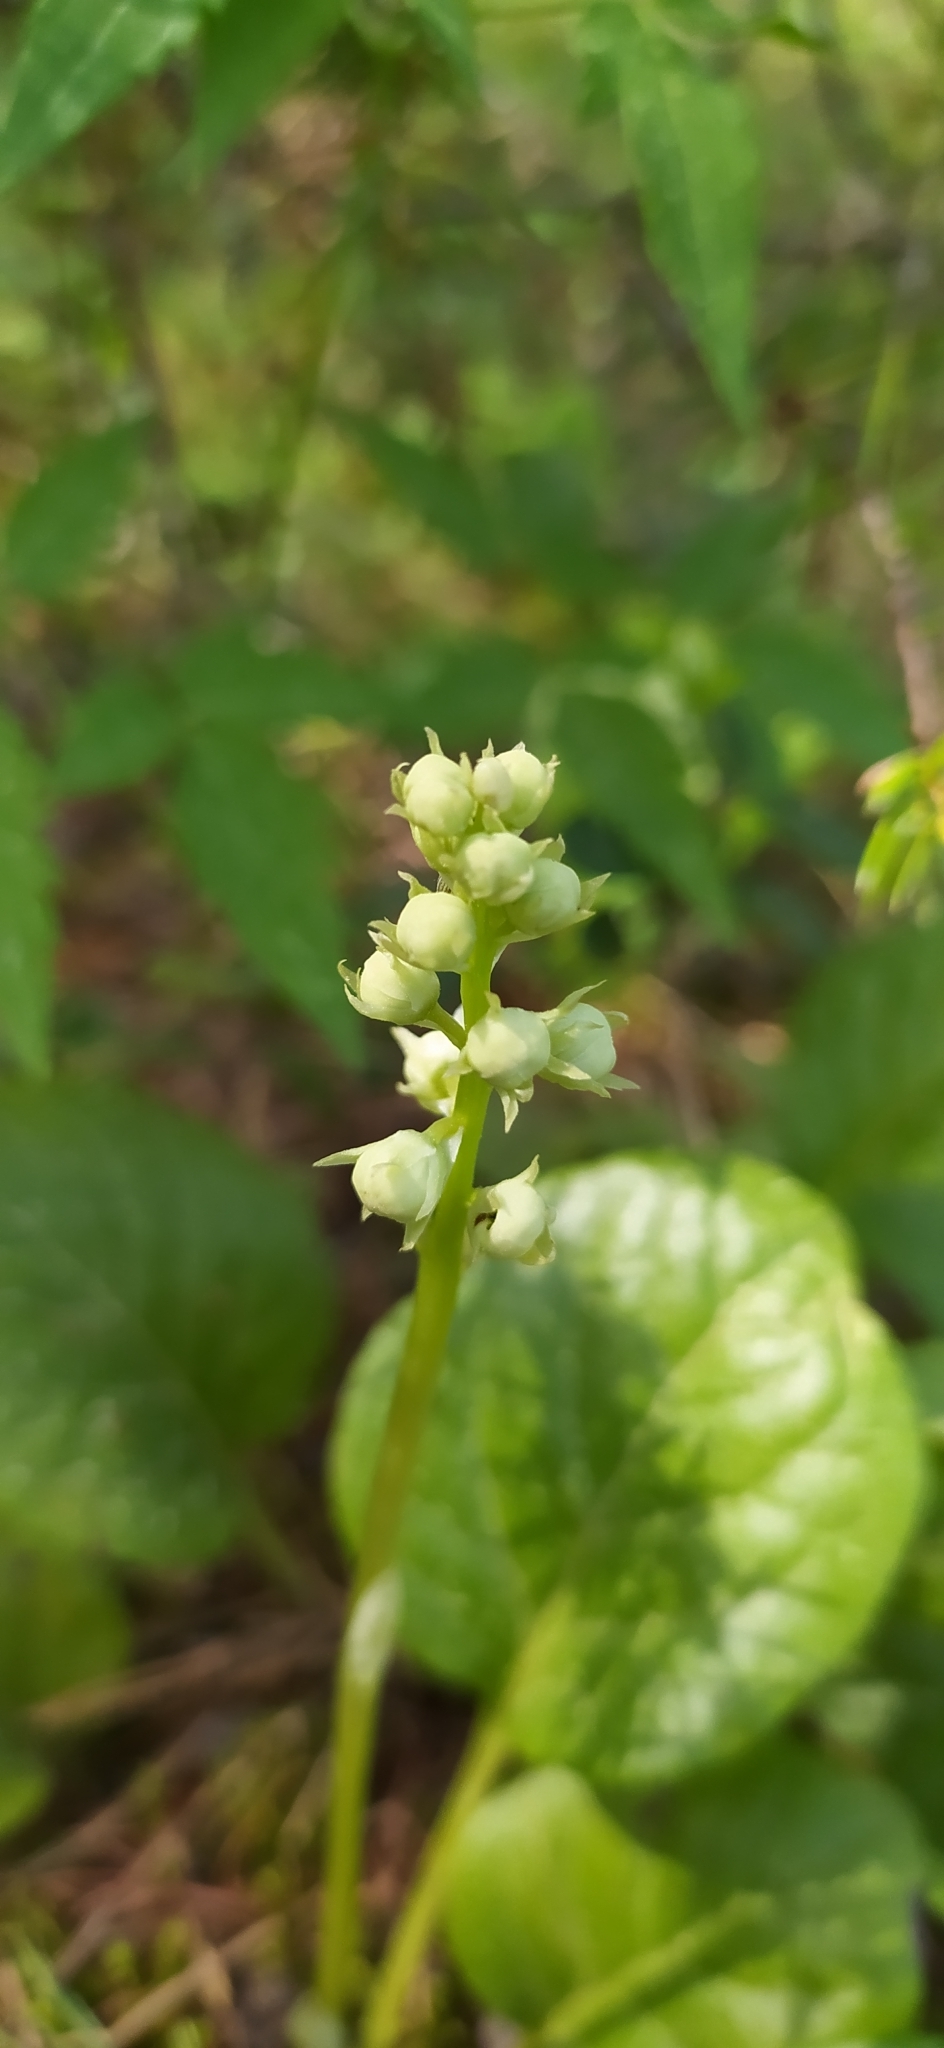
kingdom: Plantae
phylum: Tracheophyta
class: Magnoliopsida
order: Ericales
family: Ericaceae
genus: Pyrola
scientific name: Pyrola rotundifolia
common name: Round-leaved wintergreen
